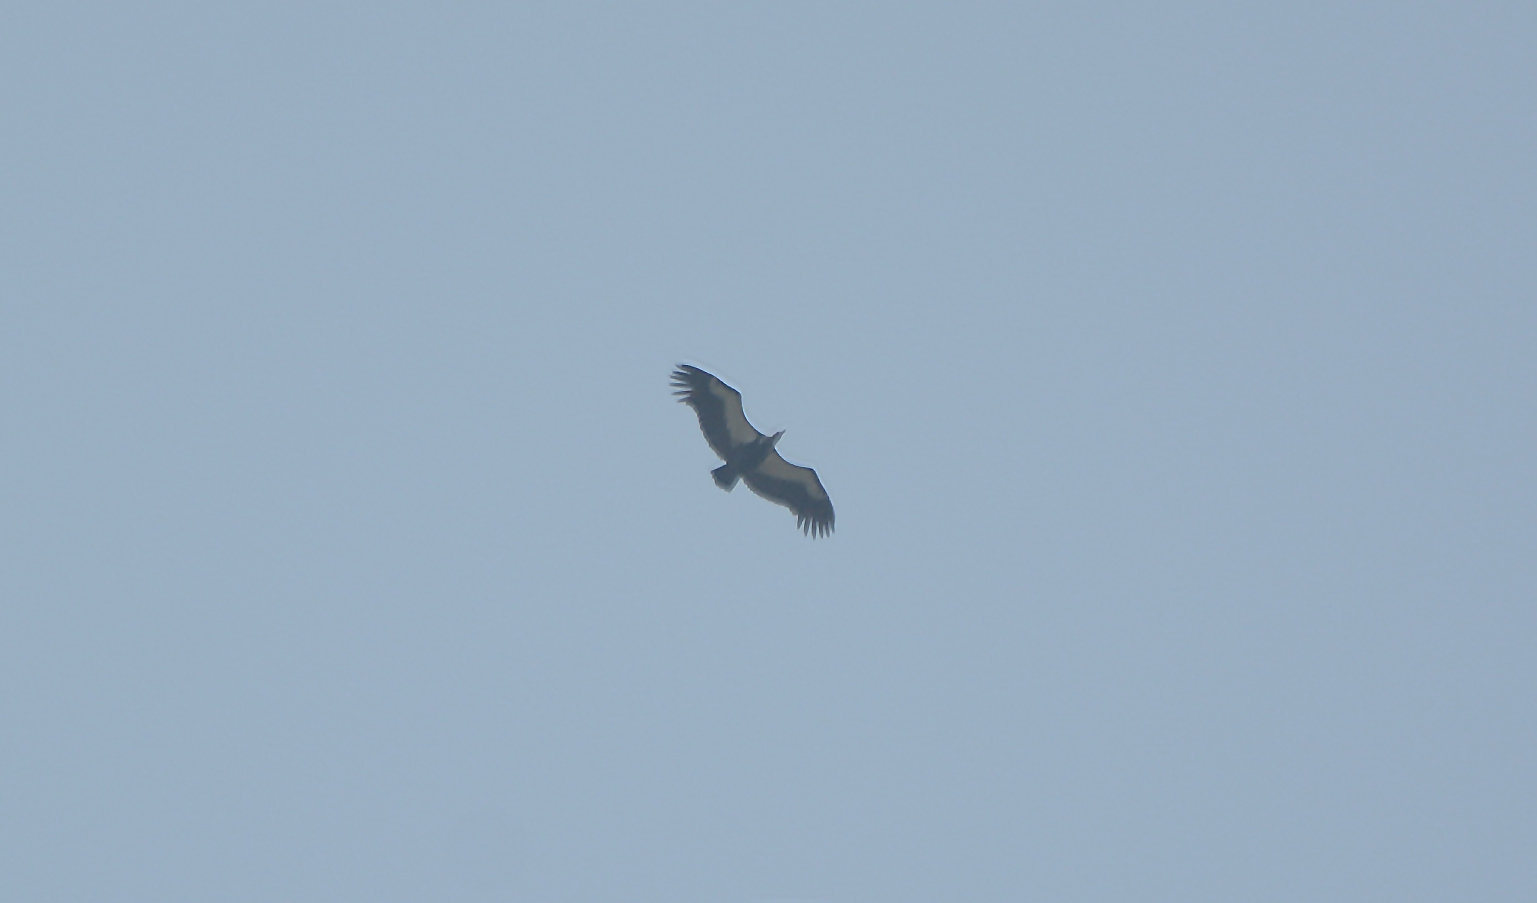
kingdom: Animalia
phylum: Chordata
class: Aves
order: Accipitriformes
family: Accipitridae
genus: Gyps
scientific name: Gyps bengalensis
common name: White-rumped vulture
